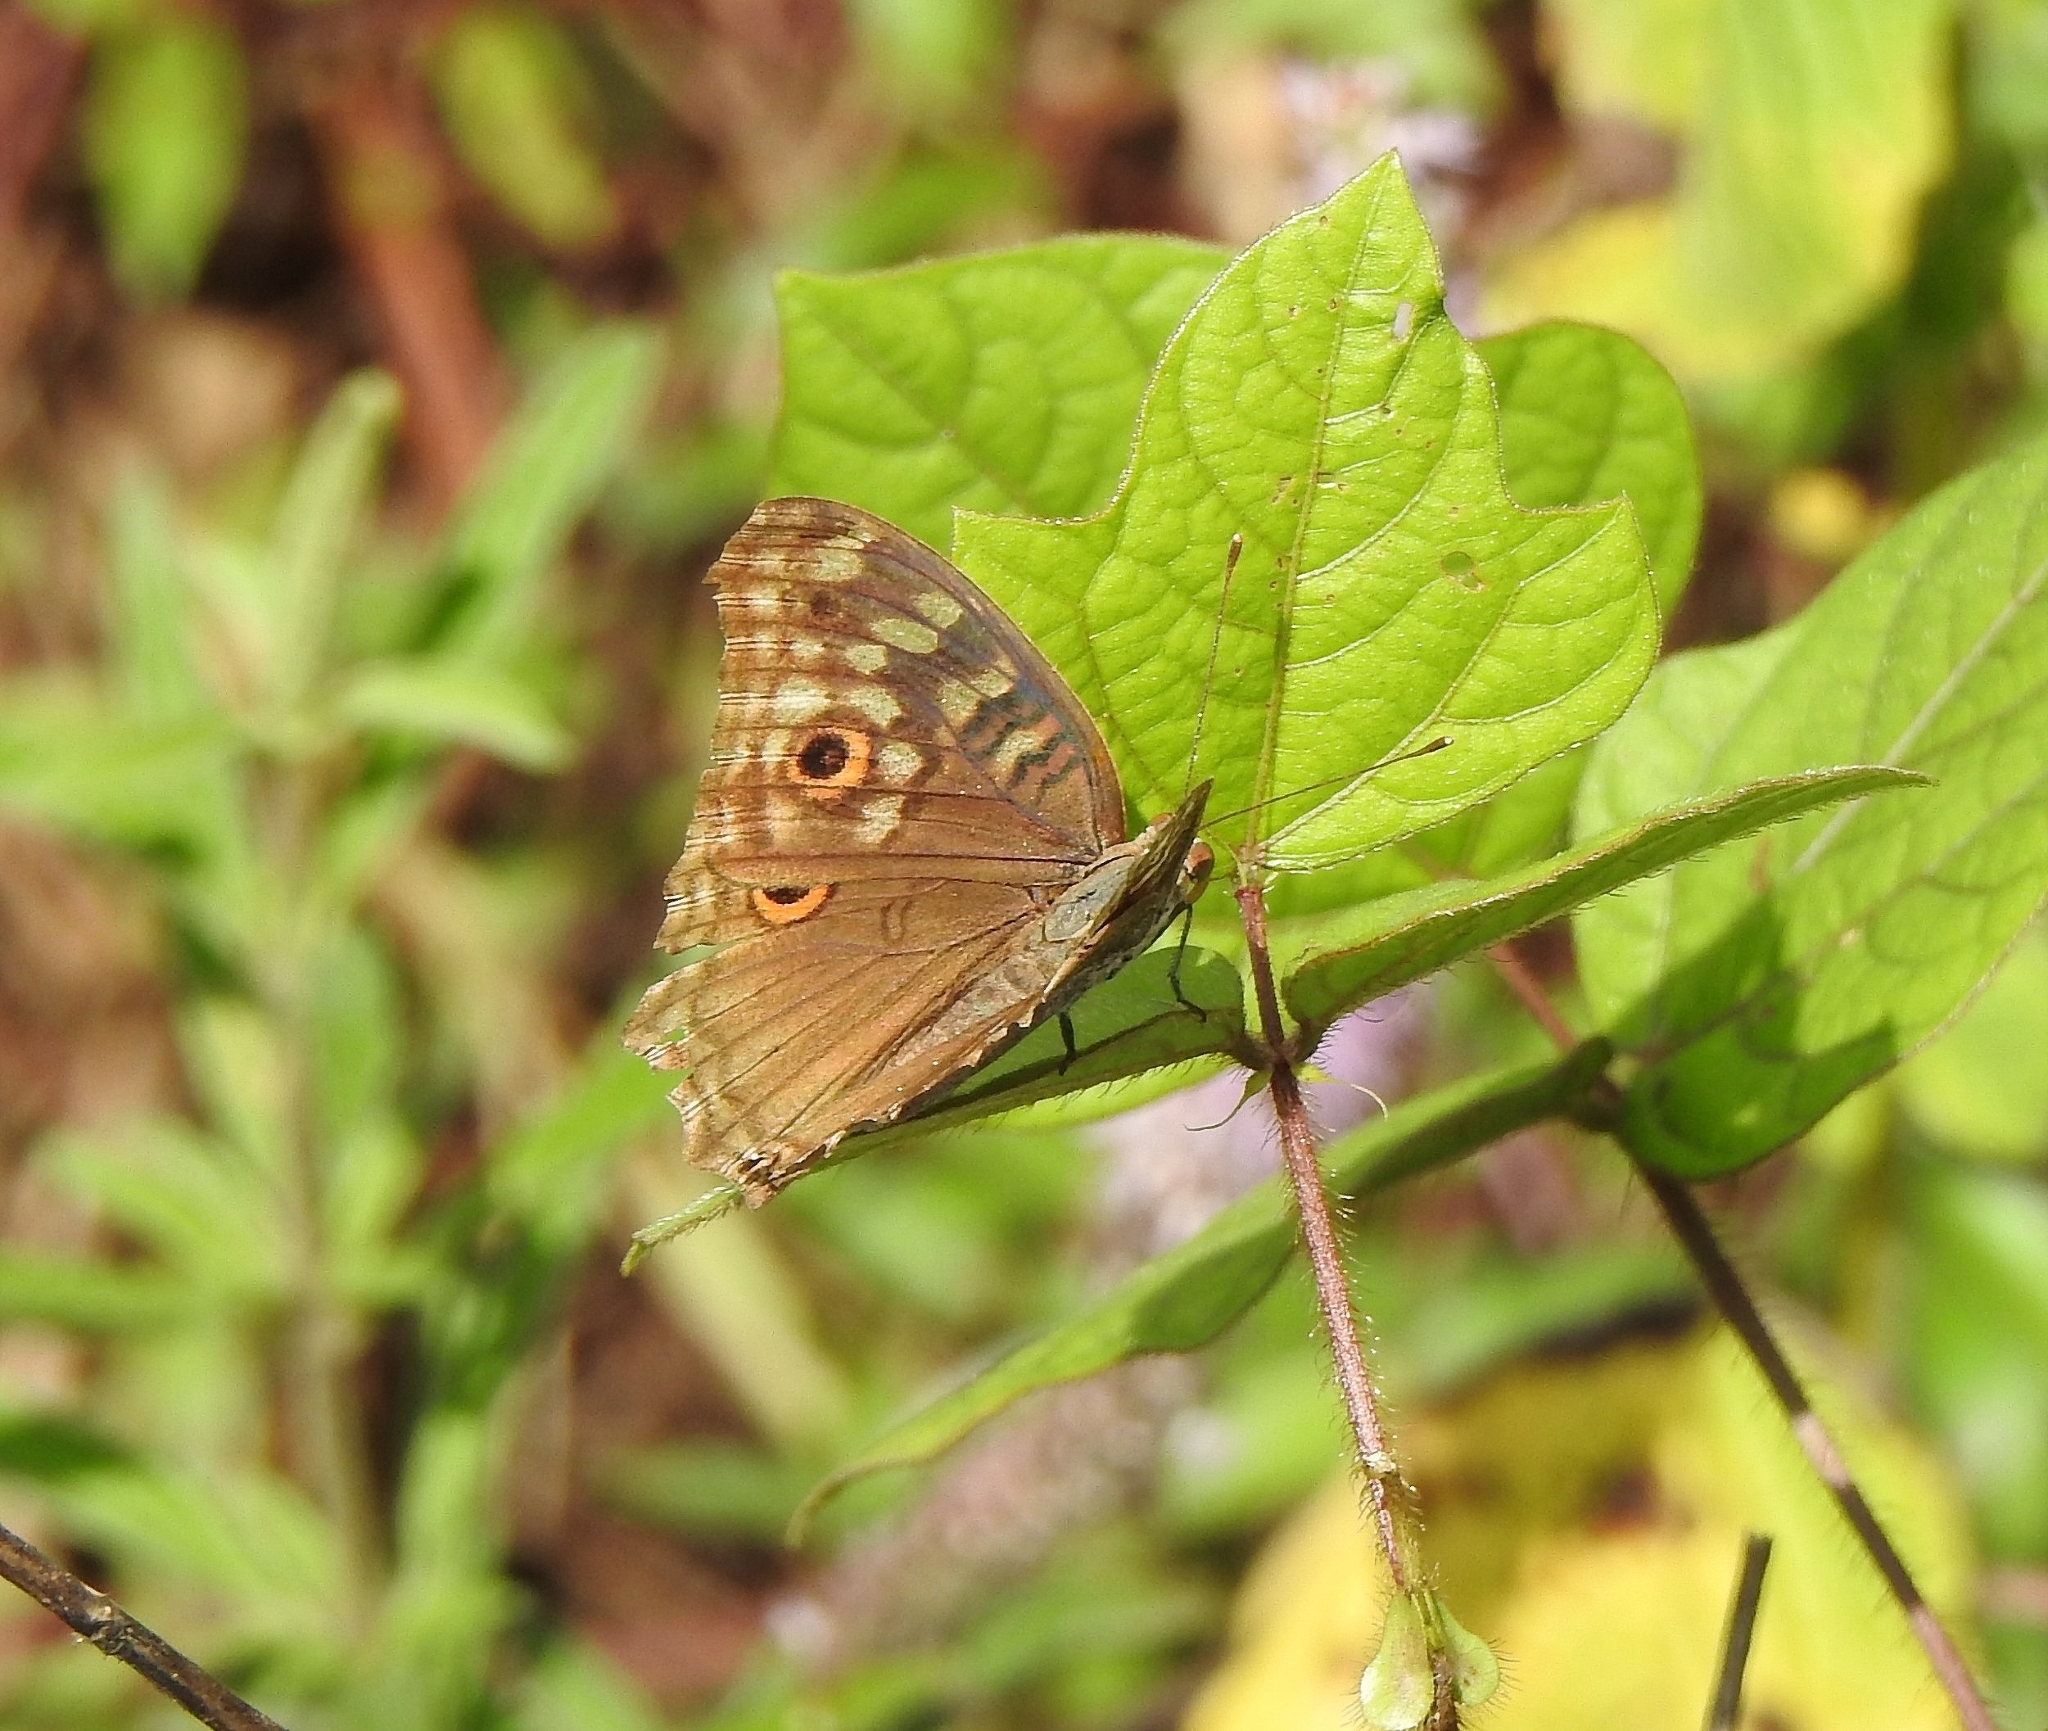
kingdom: Animalia
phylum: Arthropoda
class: Insecta
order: Lepidoptera
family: Nymphalidae
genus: Junonia
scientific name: Junonia lemonias
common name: Lemon pansy
